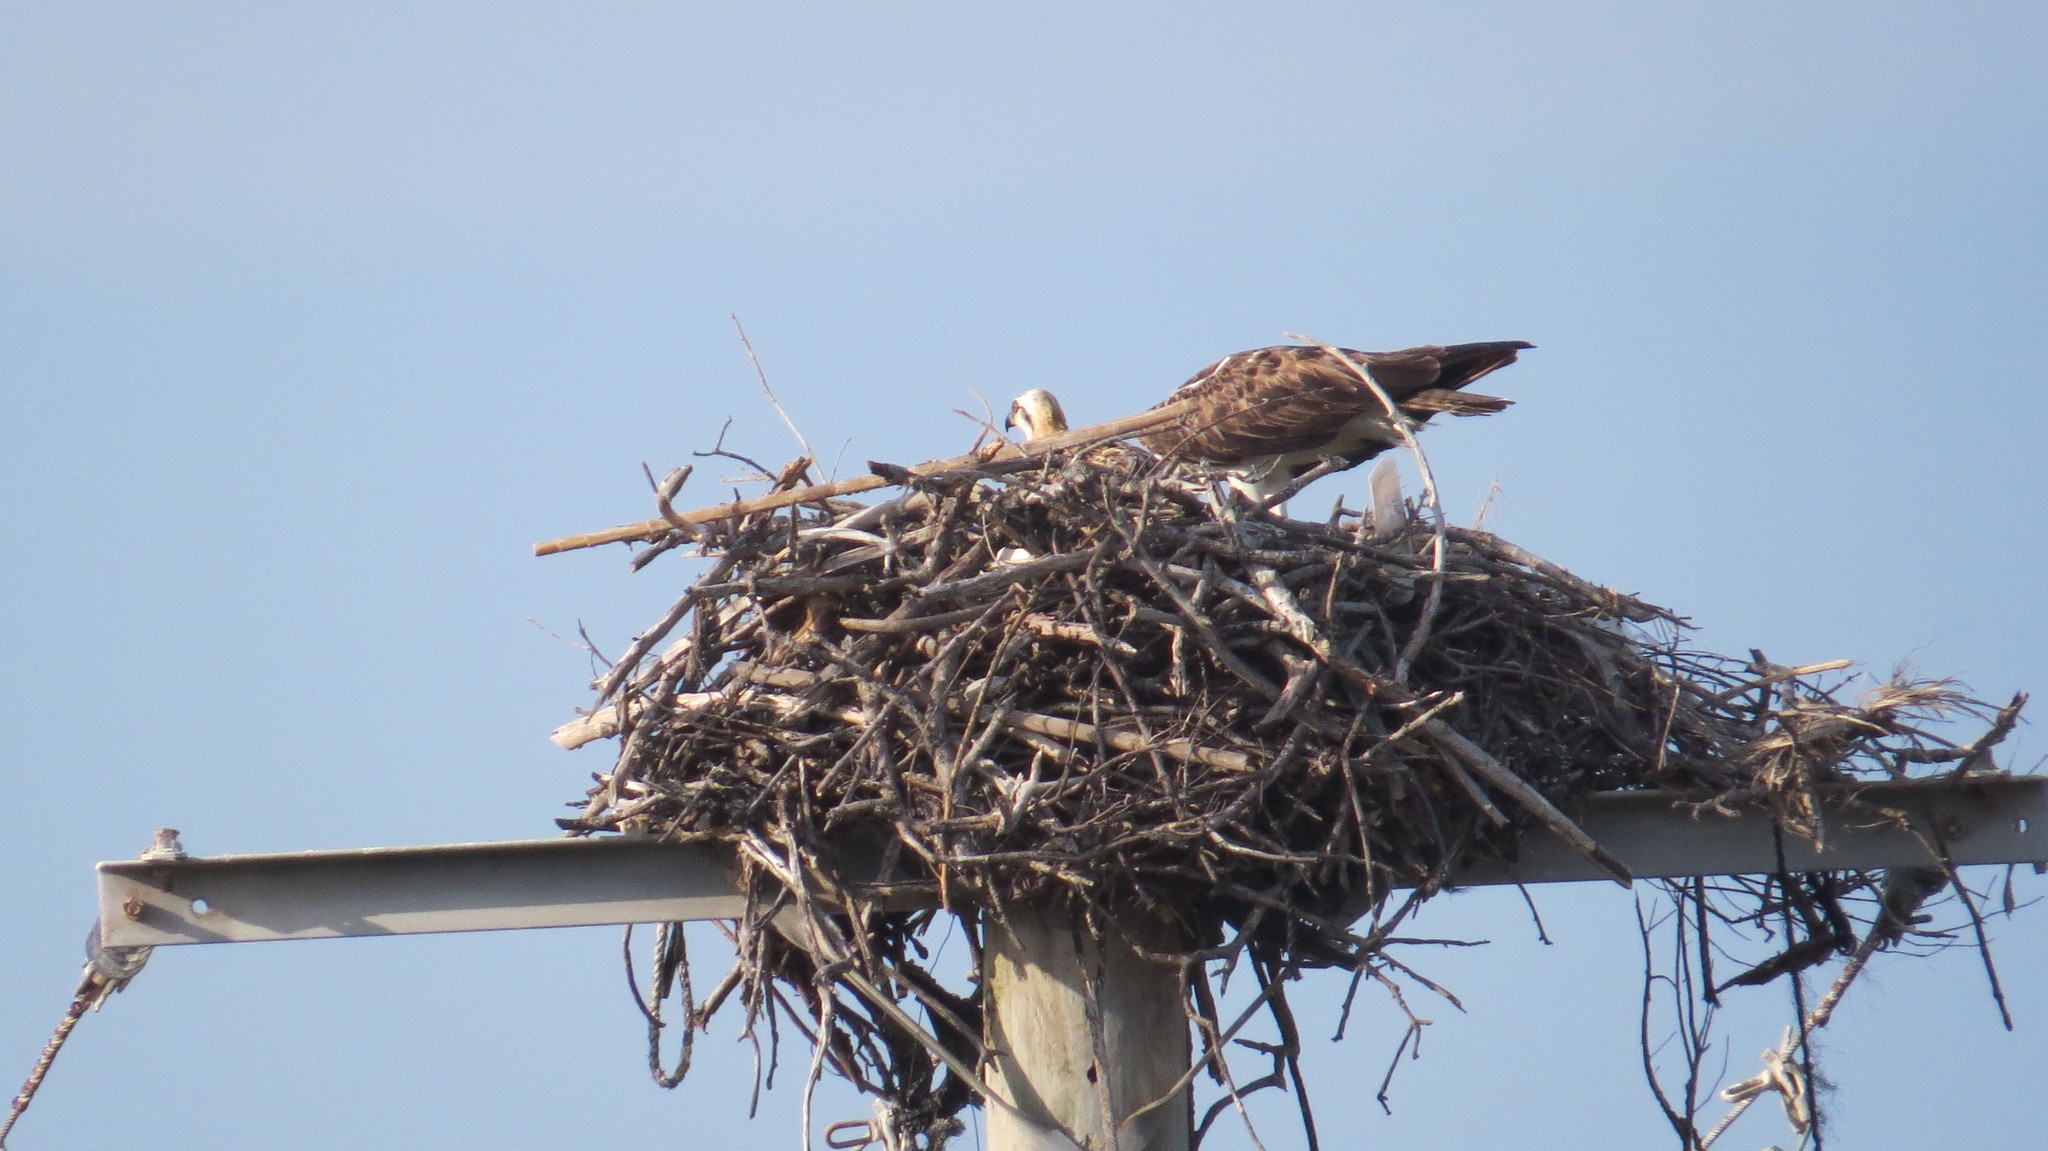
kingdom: Animalia
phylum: Chordata
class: Aves
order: Accipitriformes
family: Pandionidae
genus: Pandion
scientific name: Pandion haliaetus
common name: Osprey
